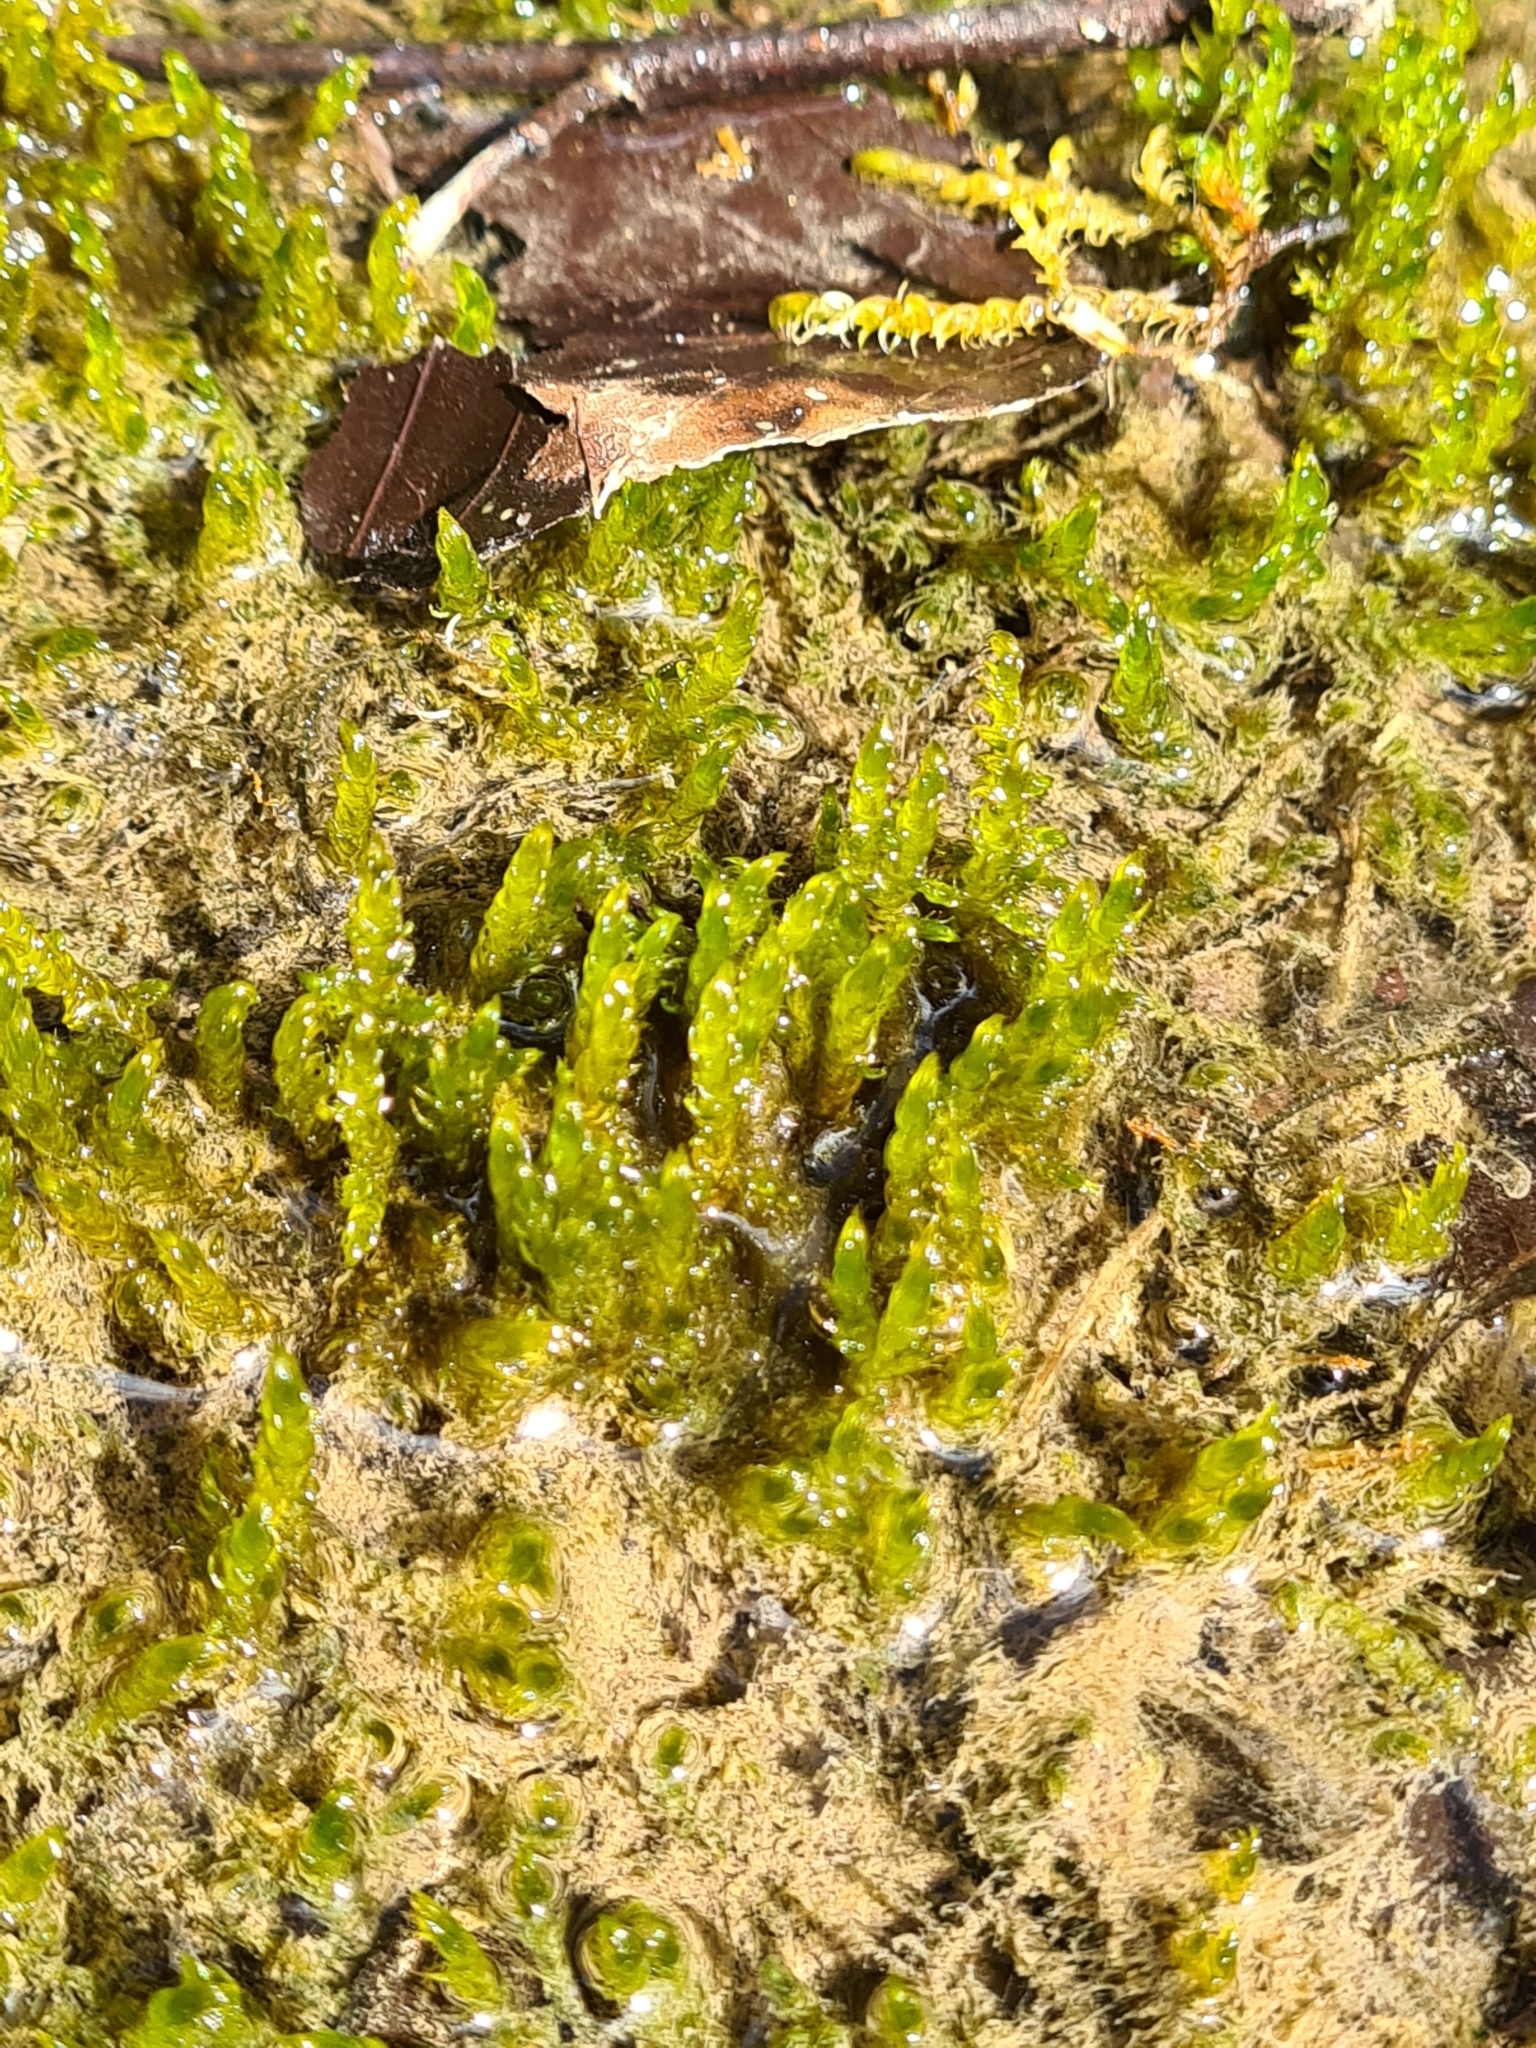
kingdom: Plantae
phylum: Bryophyta
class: Bryopsida
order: Hypnales
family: Amblystegiaceae
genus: Palustriella
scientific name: Palustriella commutata
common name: Curled hook-moss
